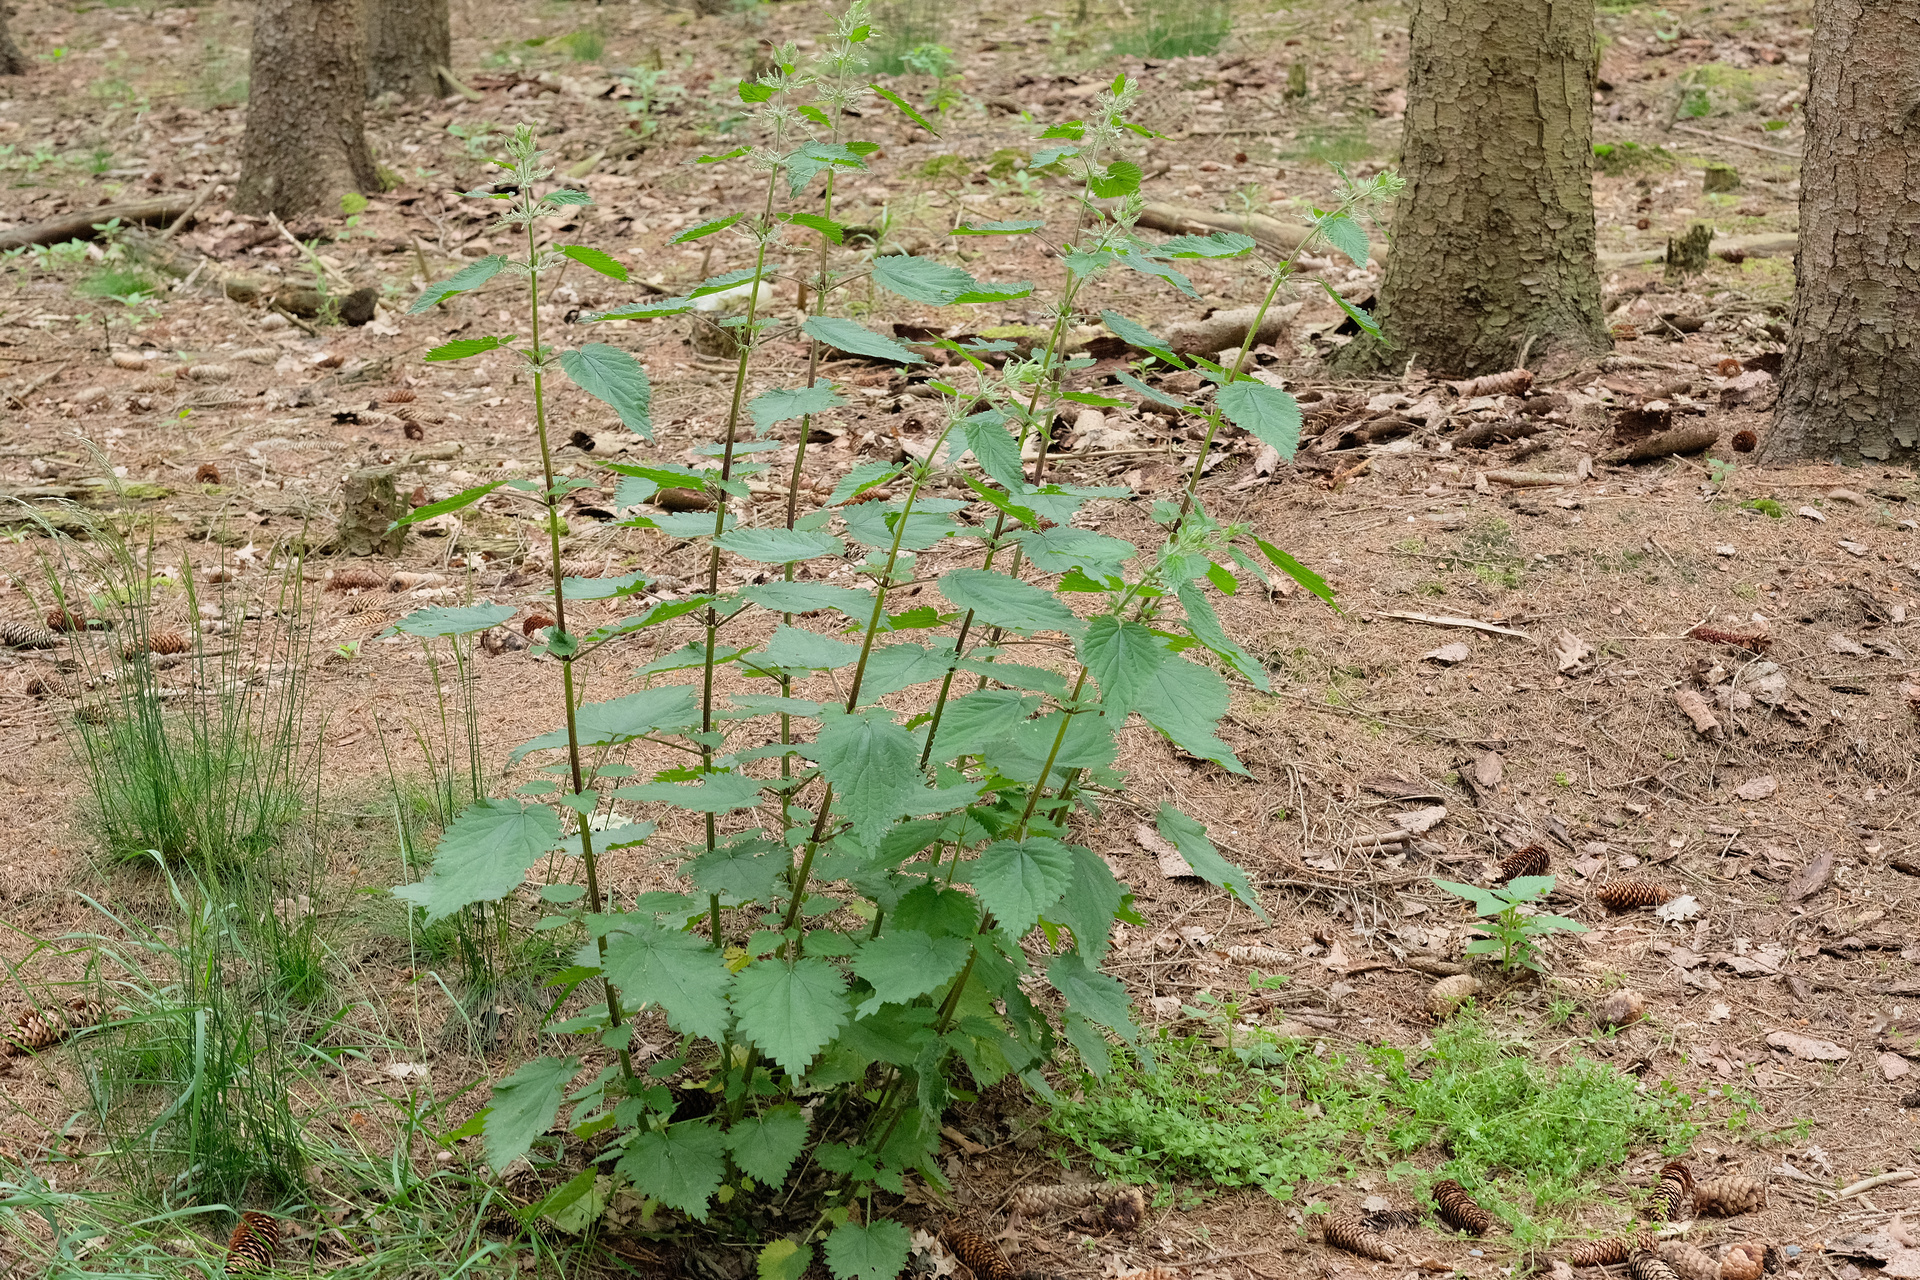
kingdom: Plantae
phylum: Tracheophyta
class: Magnoliopsida
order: Rosales
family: Urticaceae
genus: Urtica
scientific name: Urtica dioica
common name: Common nettle
